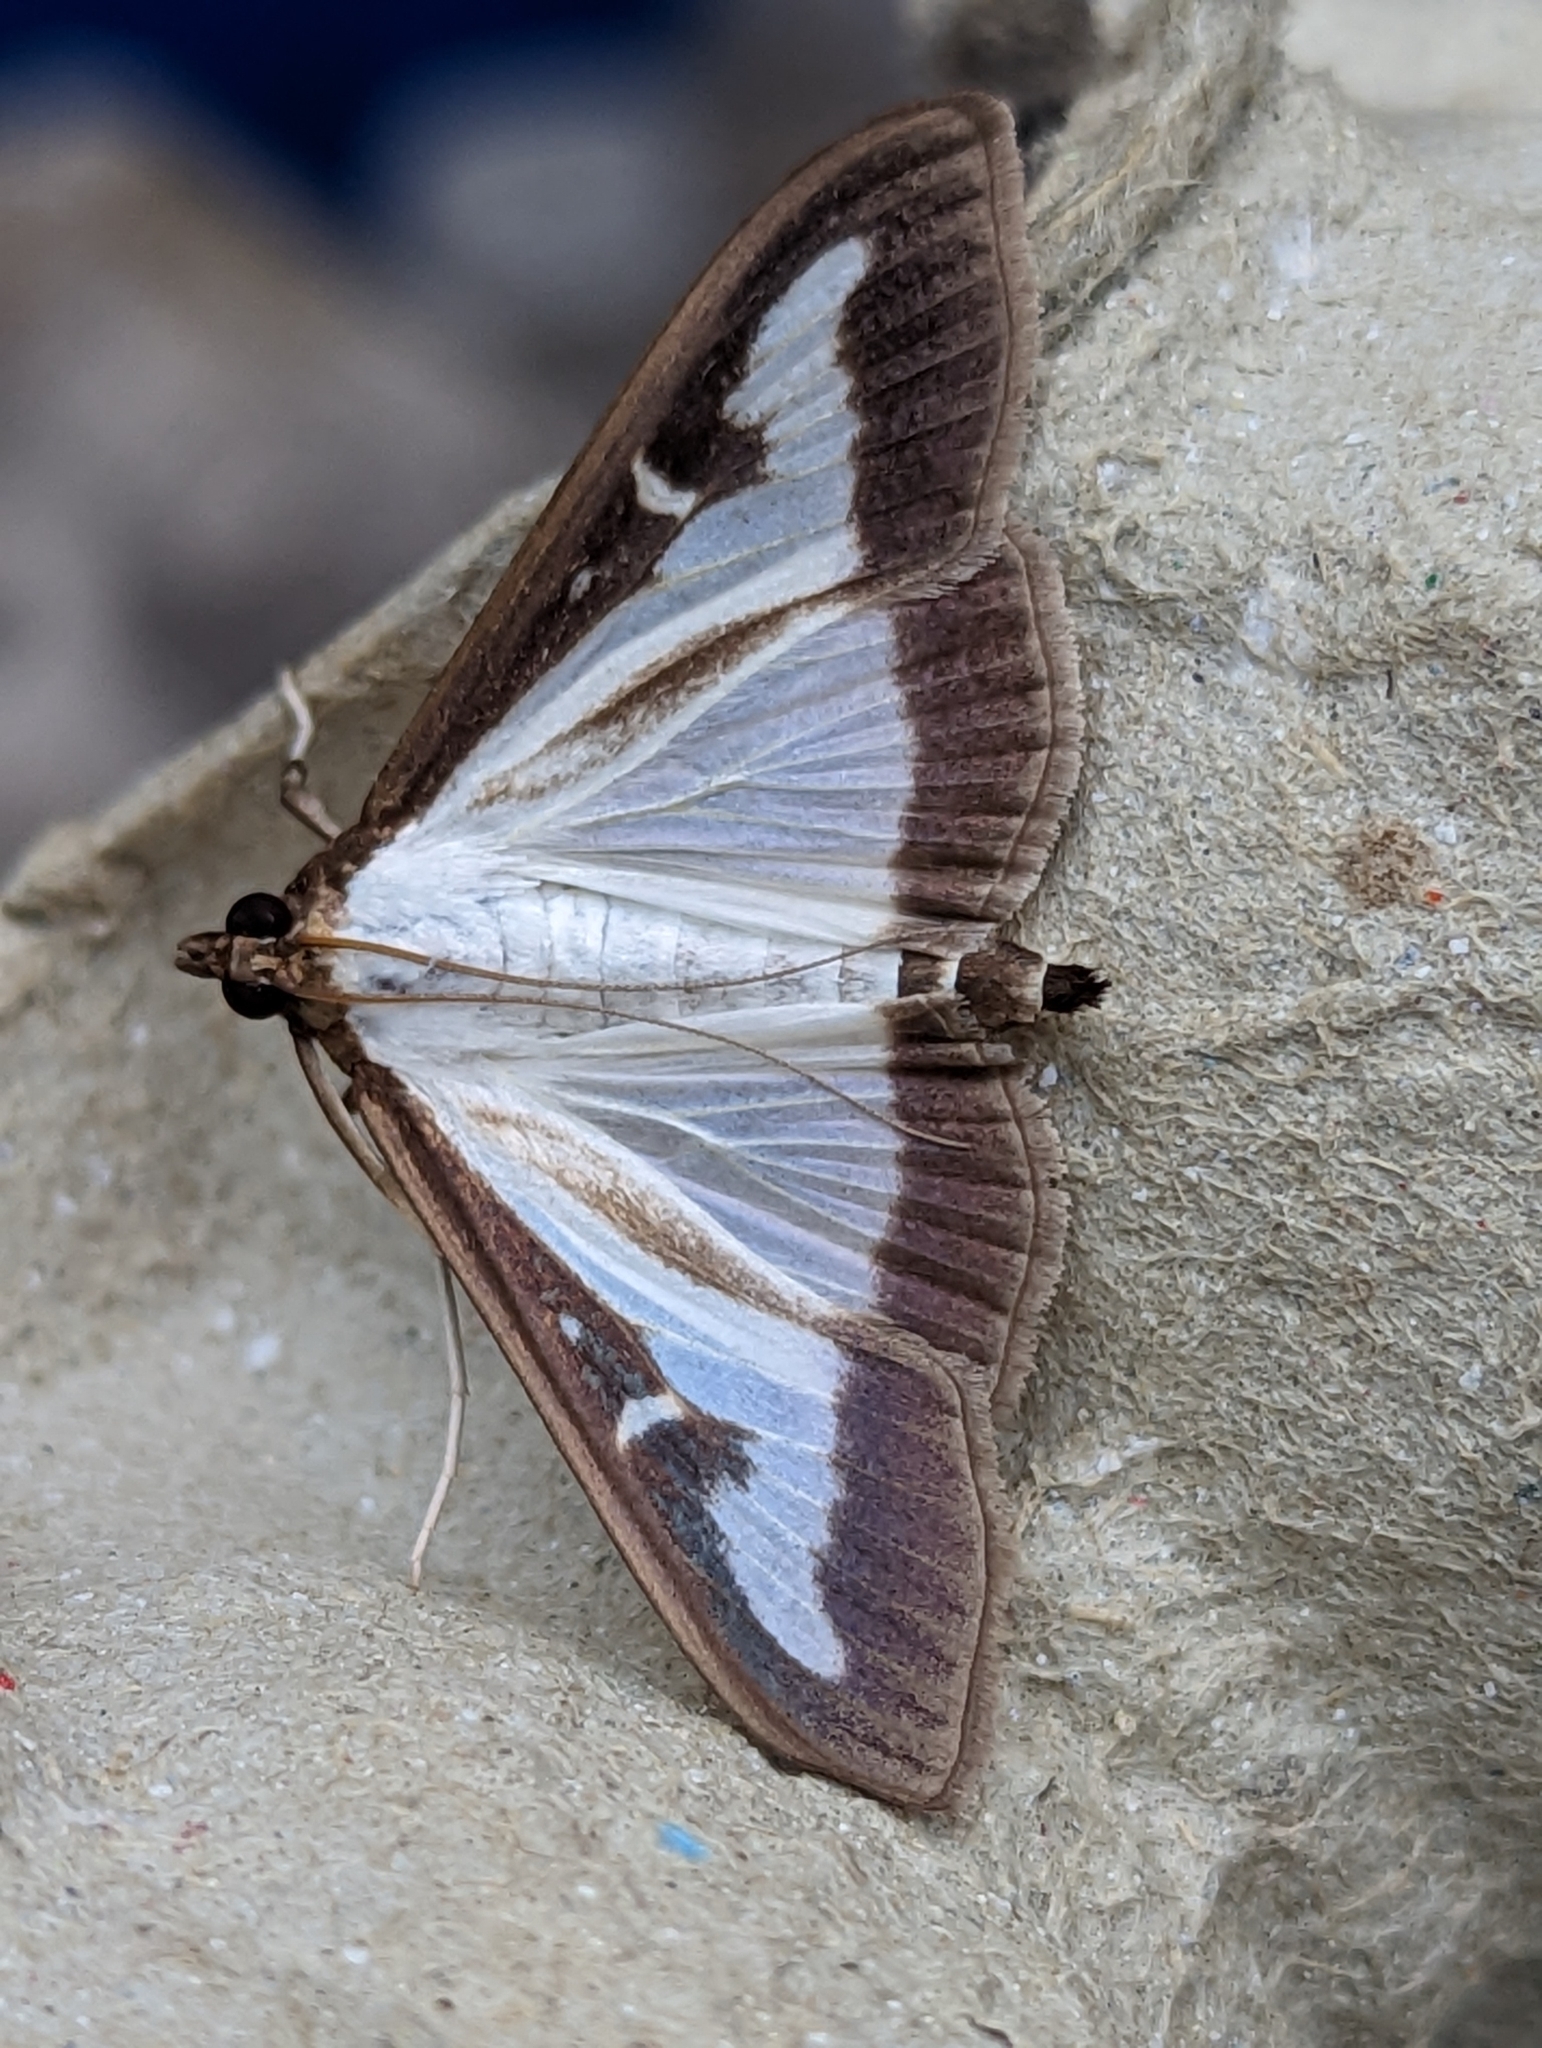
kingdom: Animalia
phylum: Arthropoda
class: Insecta
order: Lepidoptera
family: Crambidae
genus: Cydalima
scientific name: Cydalima perspectalis
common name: Box tree moth
